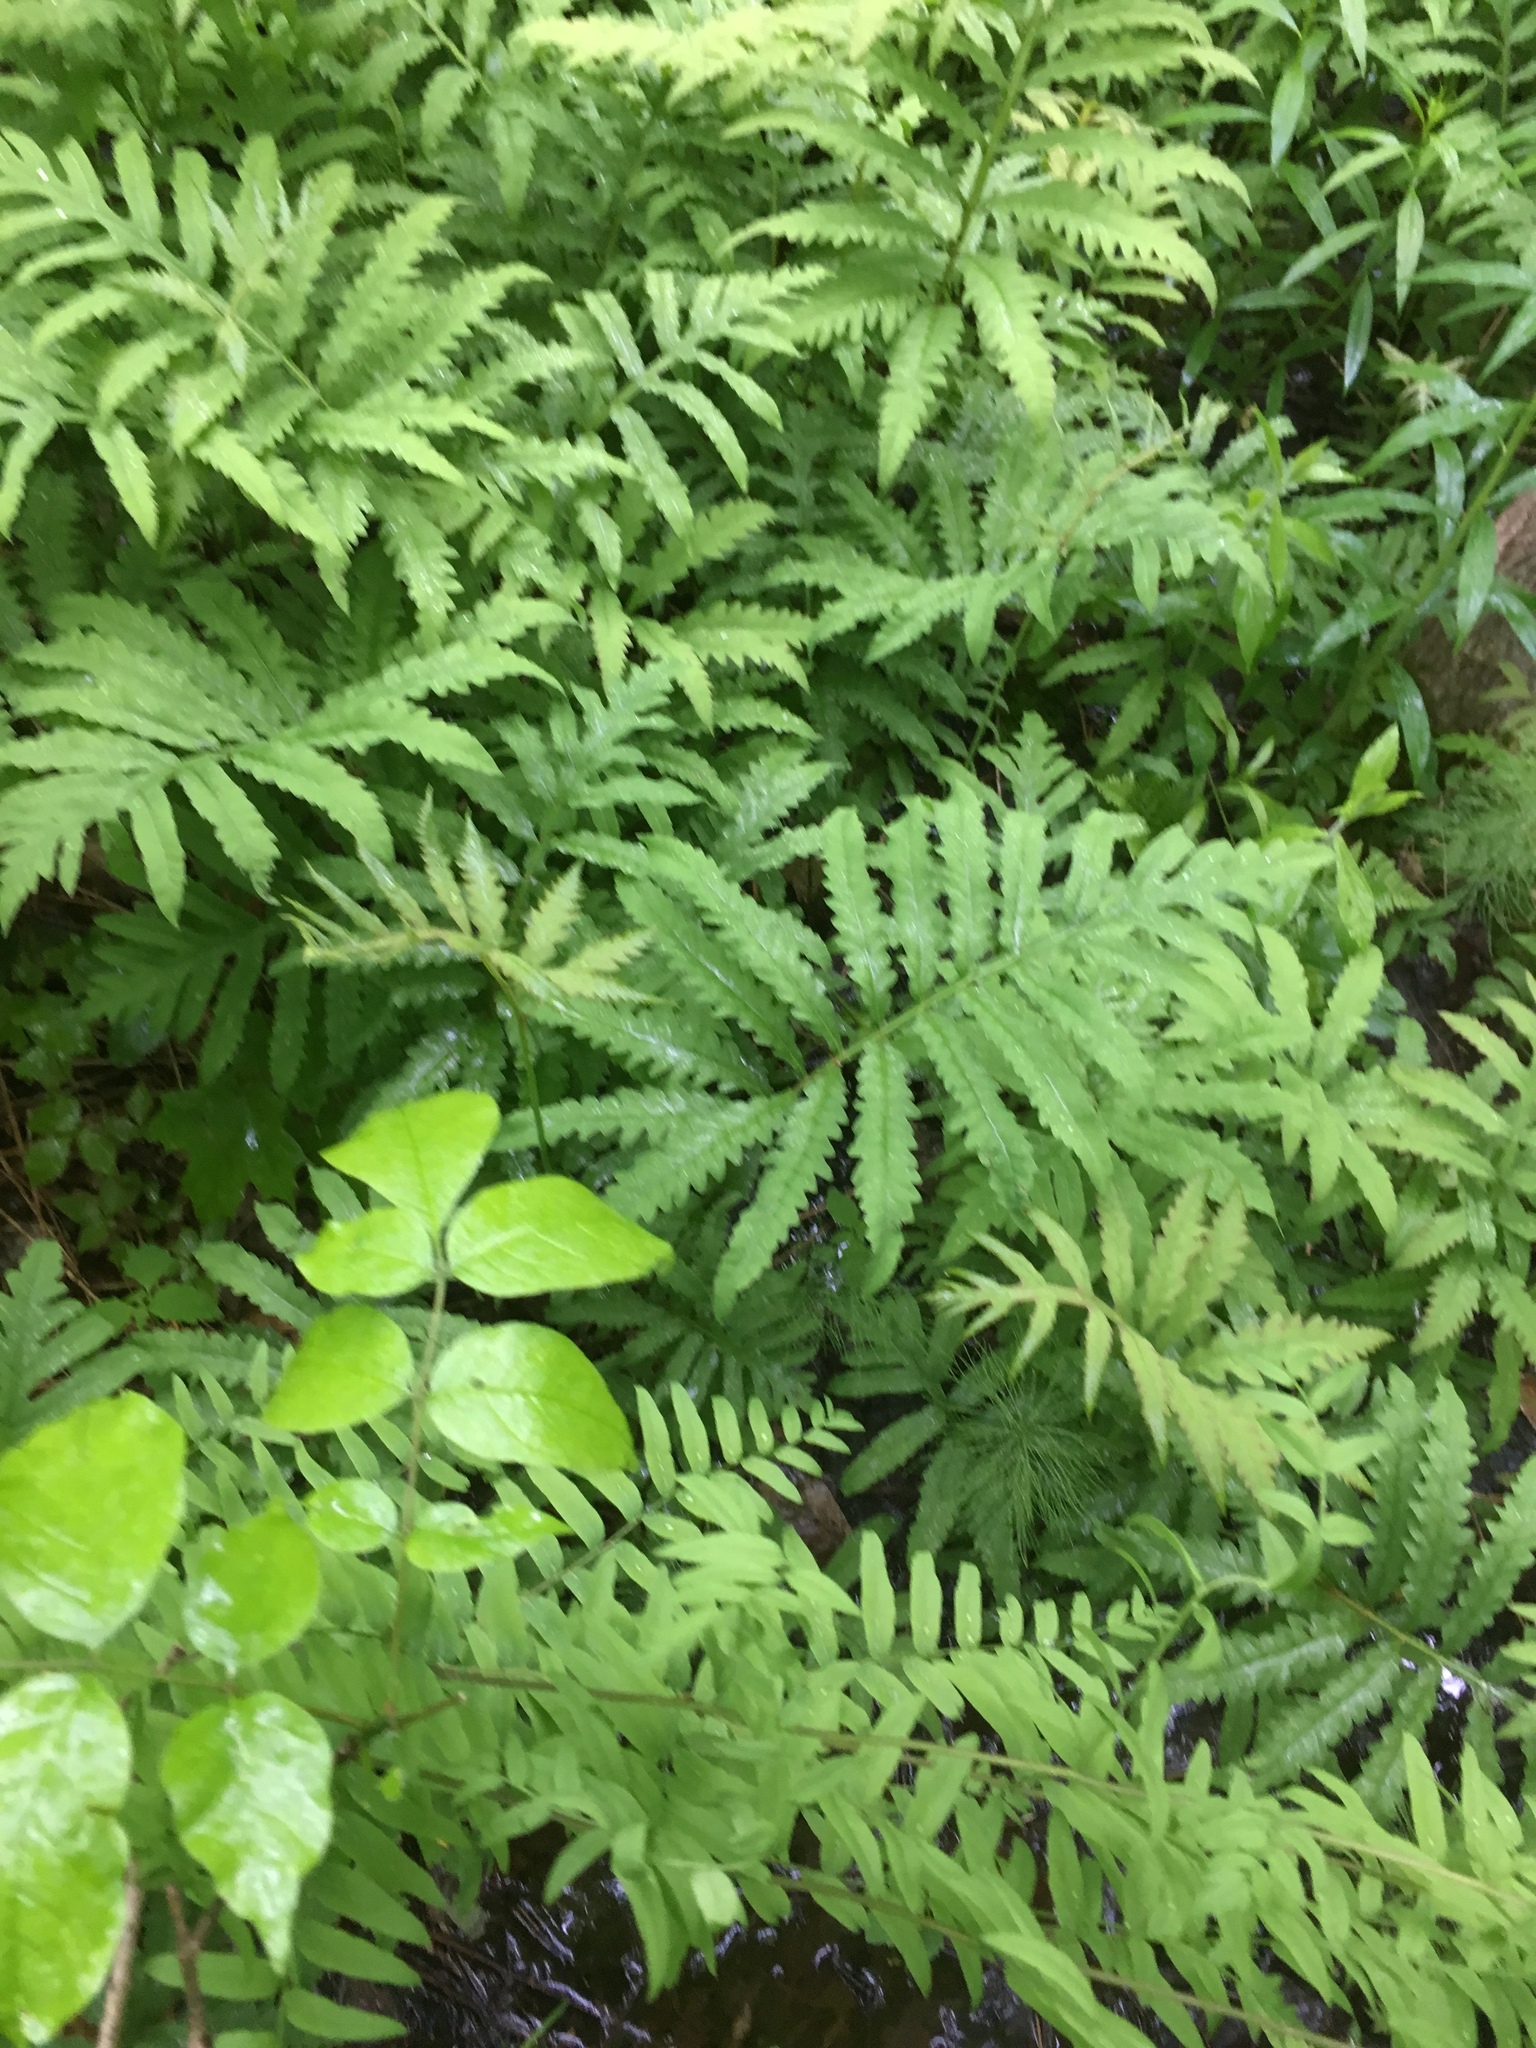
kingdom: Plantae
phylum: Tracheophyta
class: Polypodiopsida
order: Polypodiales
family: Onocleaceae
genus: Onoclea
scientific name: Onoclea sensibilis
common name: Sensitive fern
